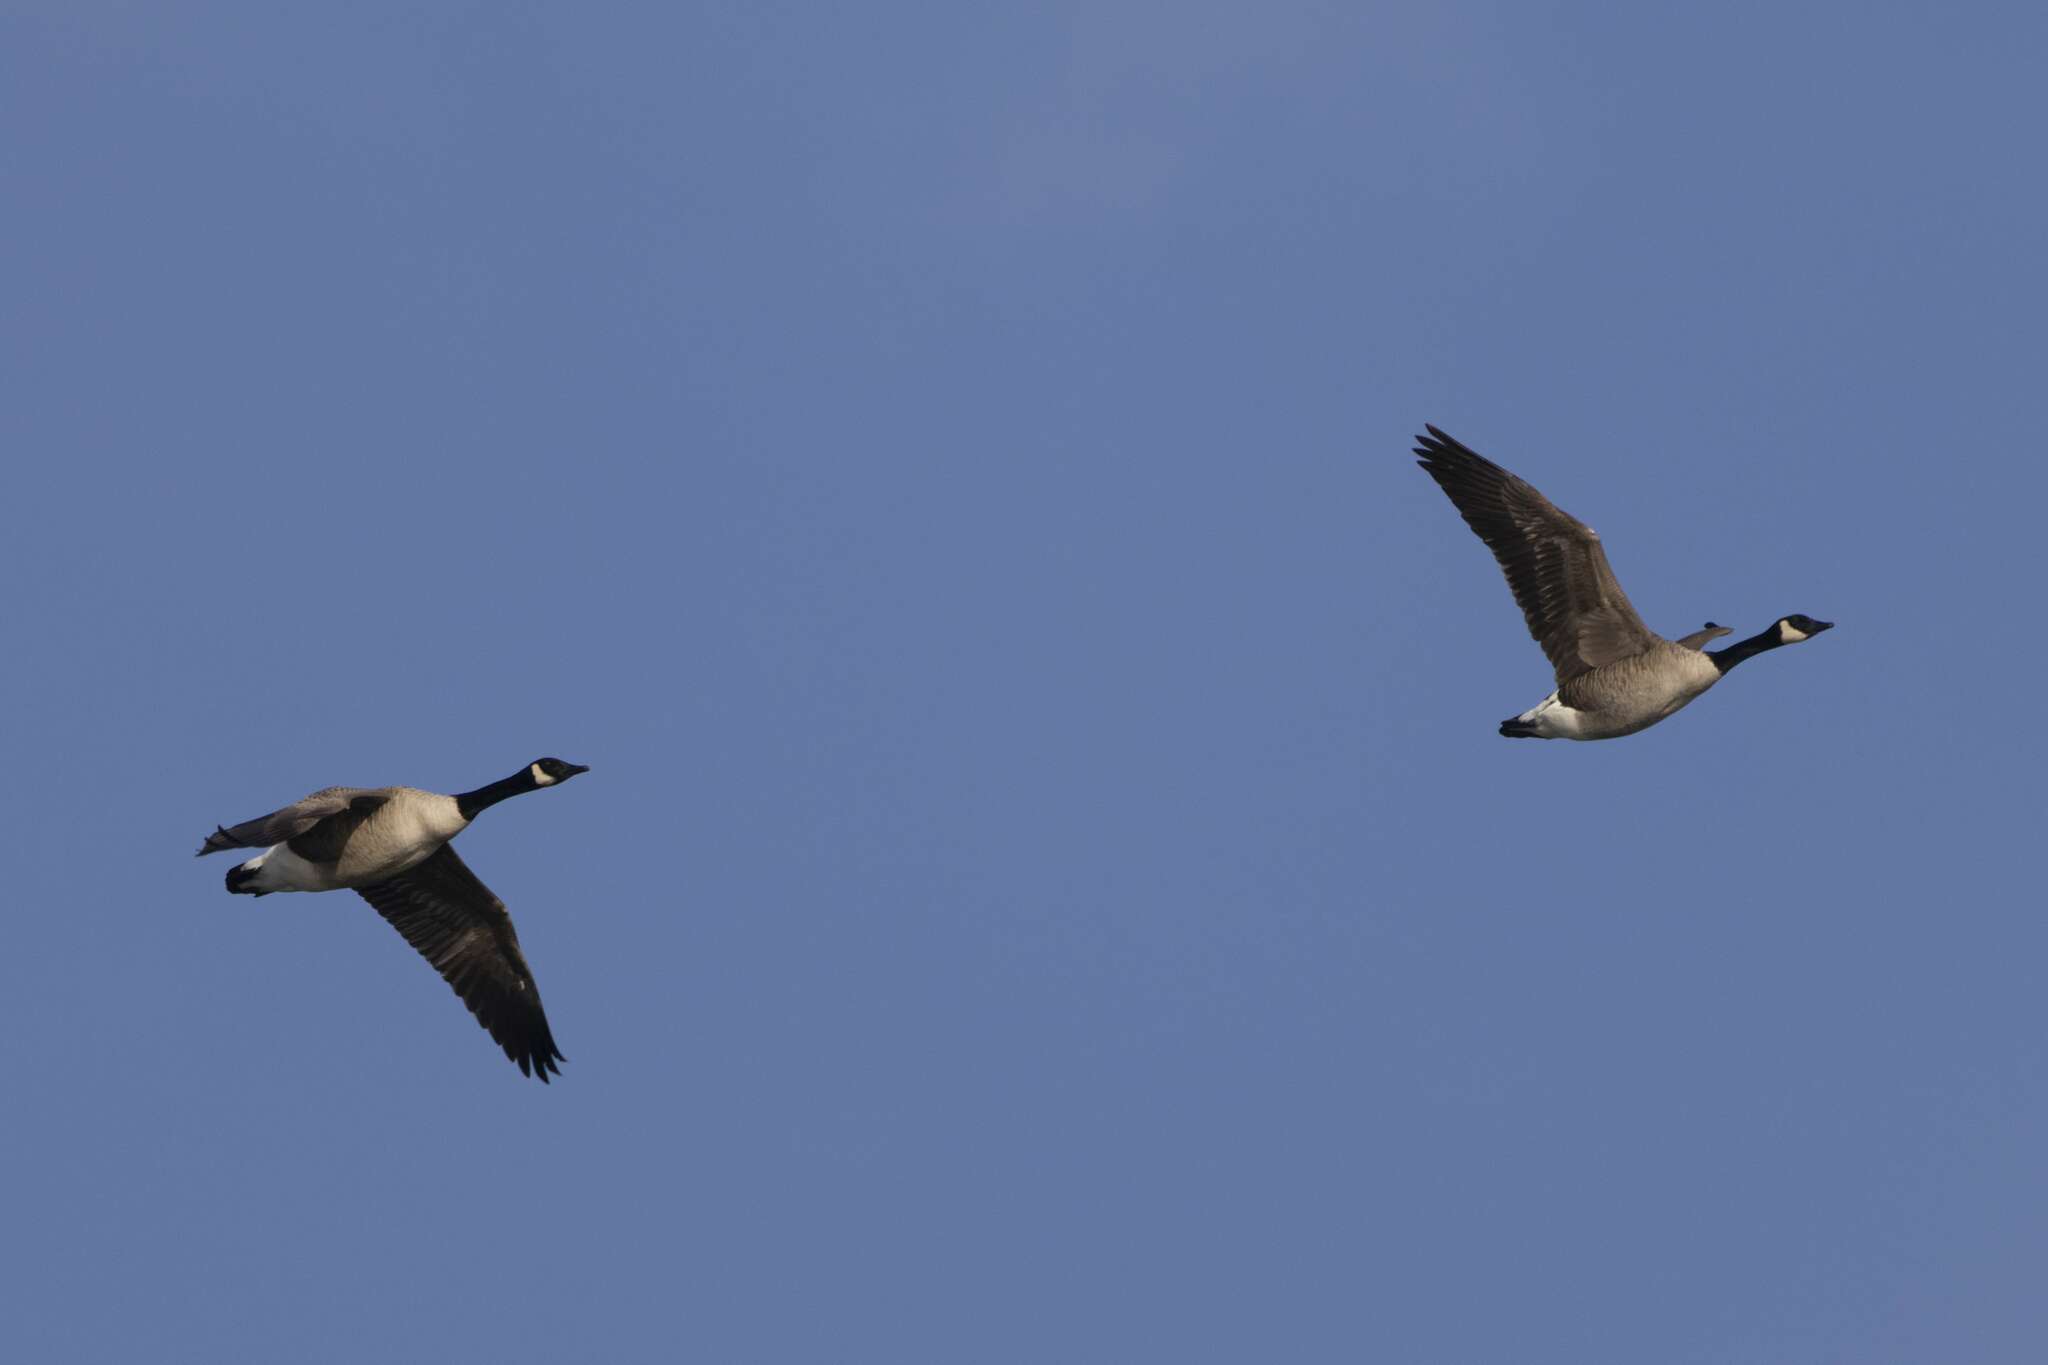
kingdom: Animalia
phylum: Chordata
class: Aves
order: Anseriformes
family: Anatidae
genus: Branta
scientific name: Branta canadensis
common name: Canada goose
